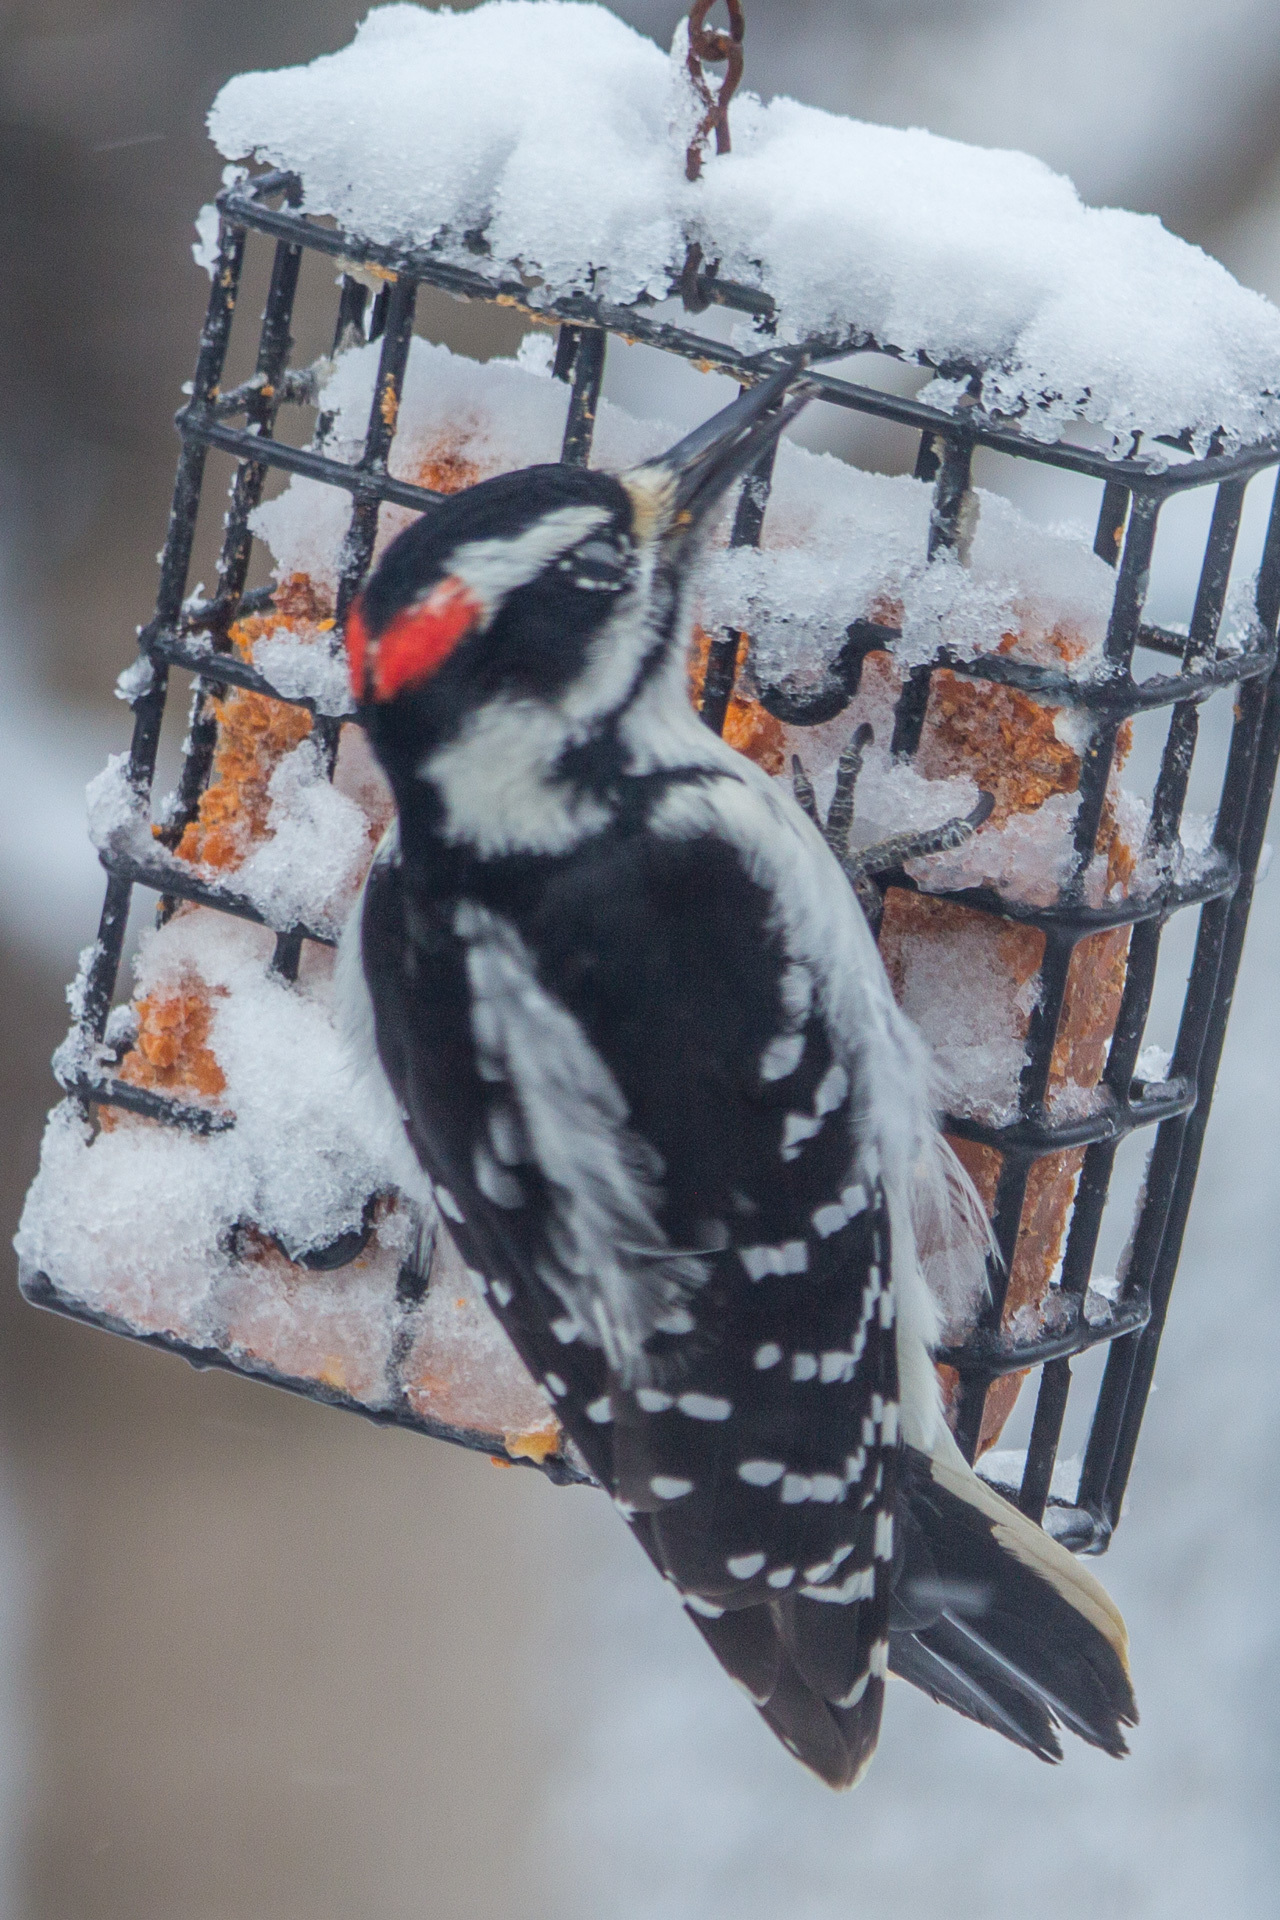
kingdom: Animalia
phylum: Chordata
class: Aves
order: Piciformes
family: Picidae
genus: Leuconotopicus
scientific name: Leuconotopicus villosus
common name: Hairy woodpecker
